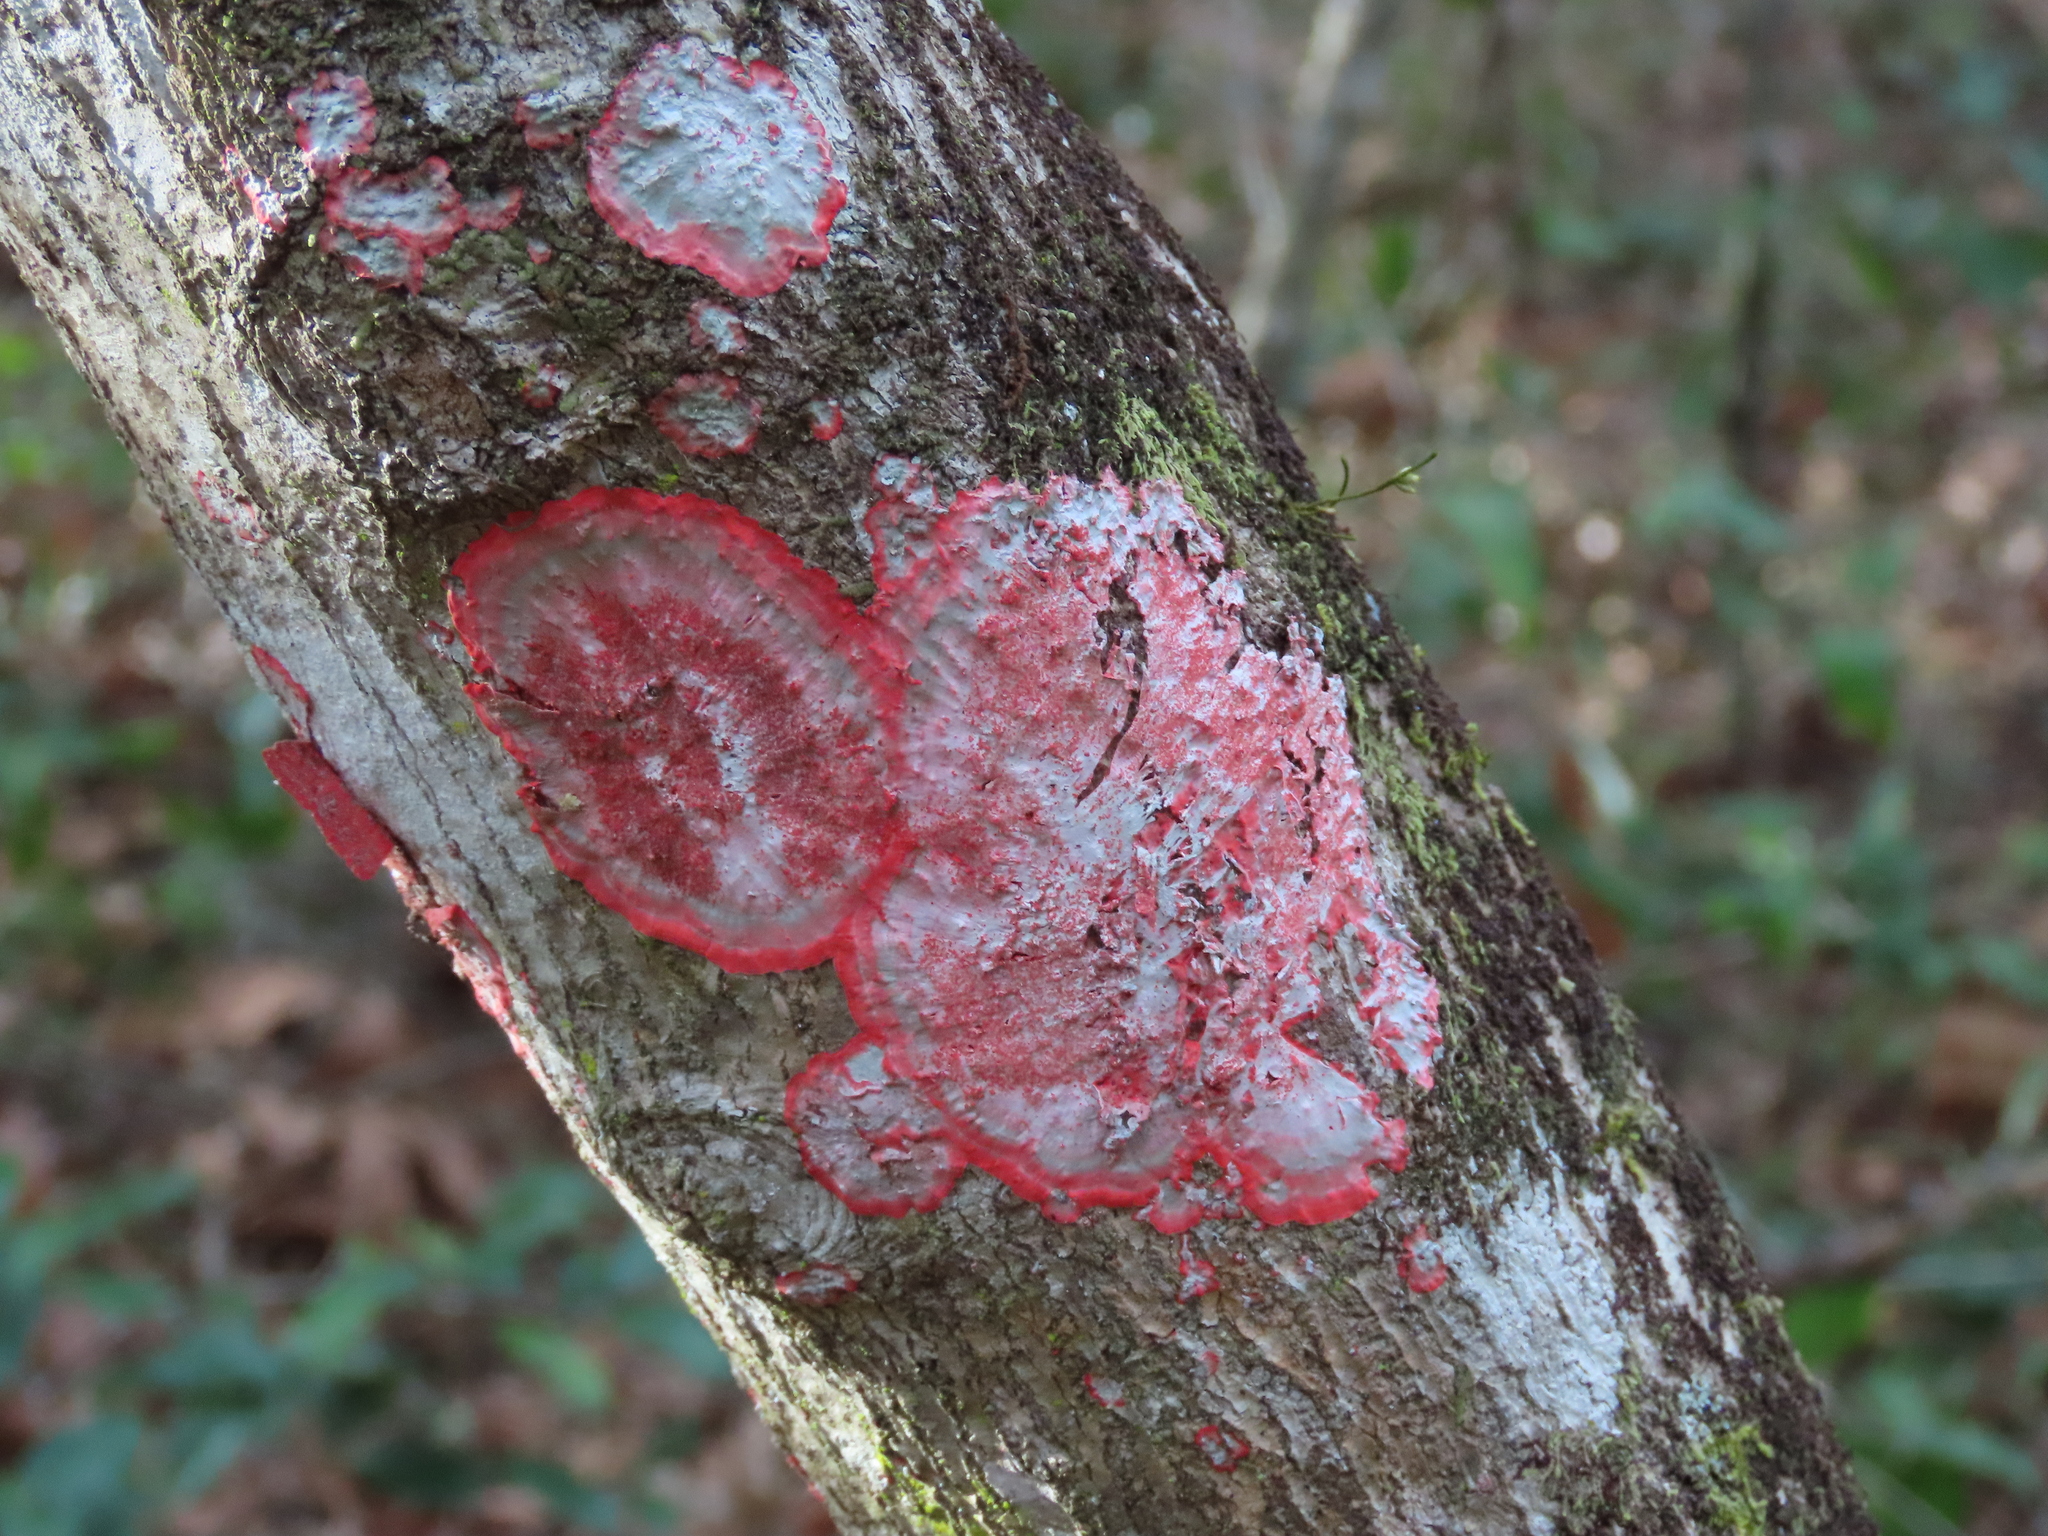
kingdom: Fungi
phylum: Ascomycota
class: Arthoniomycetes
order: Arthoniales
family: Arthoniaceae
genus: Herpothallon
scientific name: Herpothallon rubrocinctum
